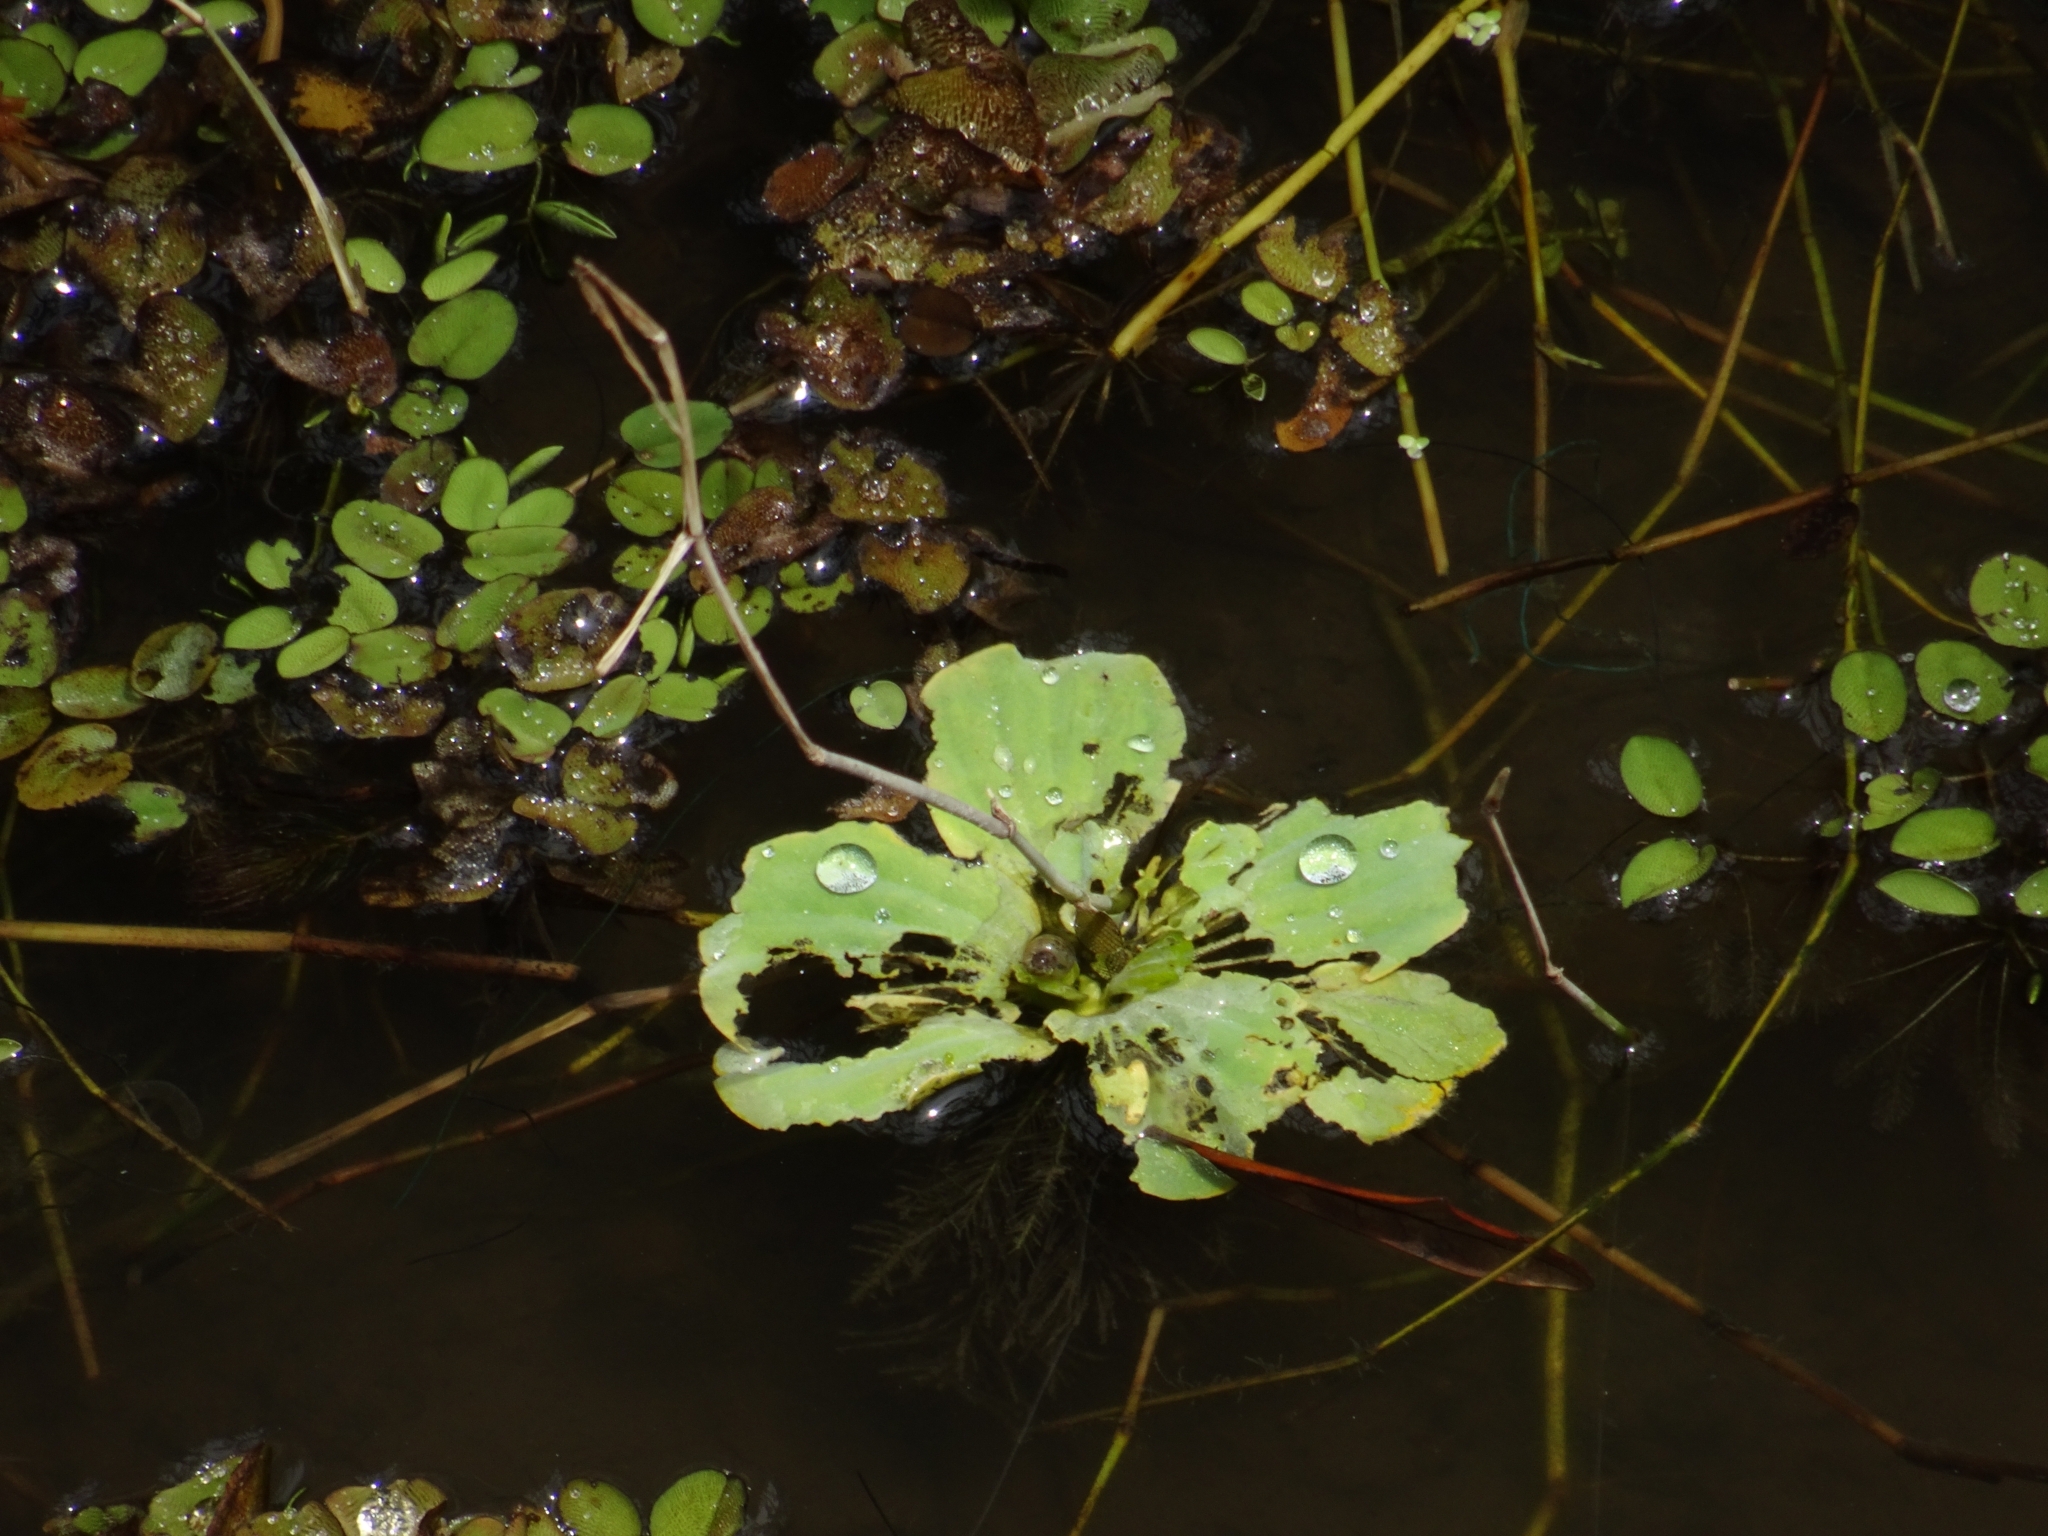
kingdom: Plantae
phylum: Tracheophyta
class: Liliopsida
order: Alismatales
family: Araceae
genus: Pistia
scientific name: Pistia stratiotes
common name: Water lettuce
